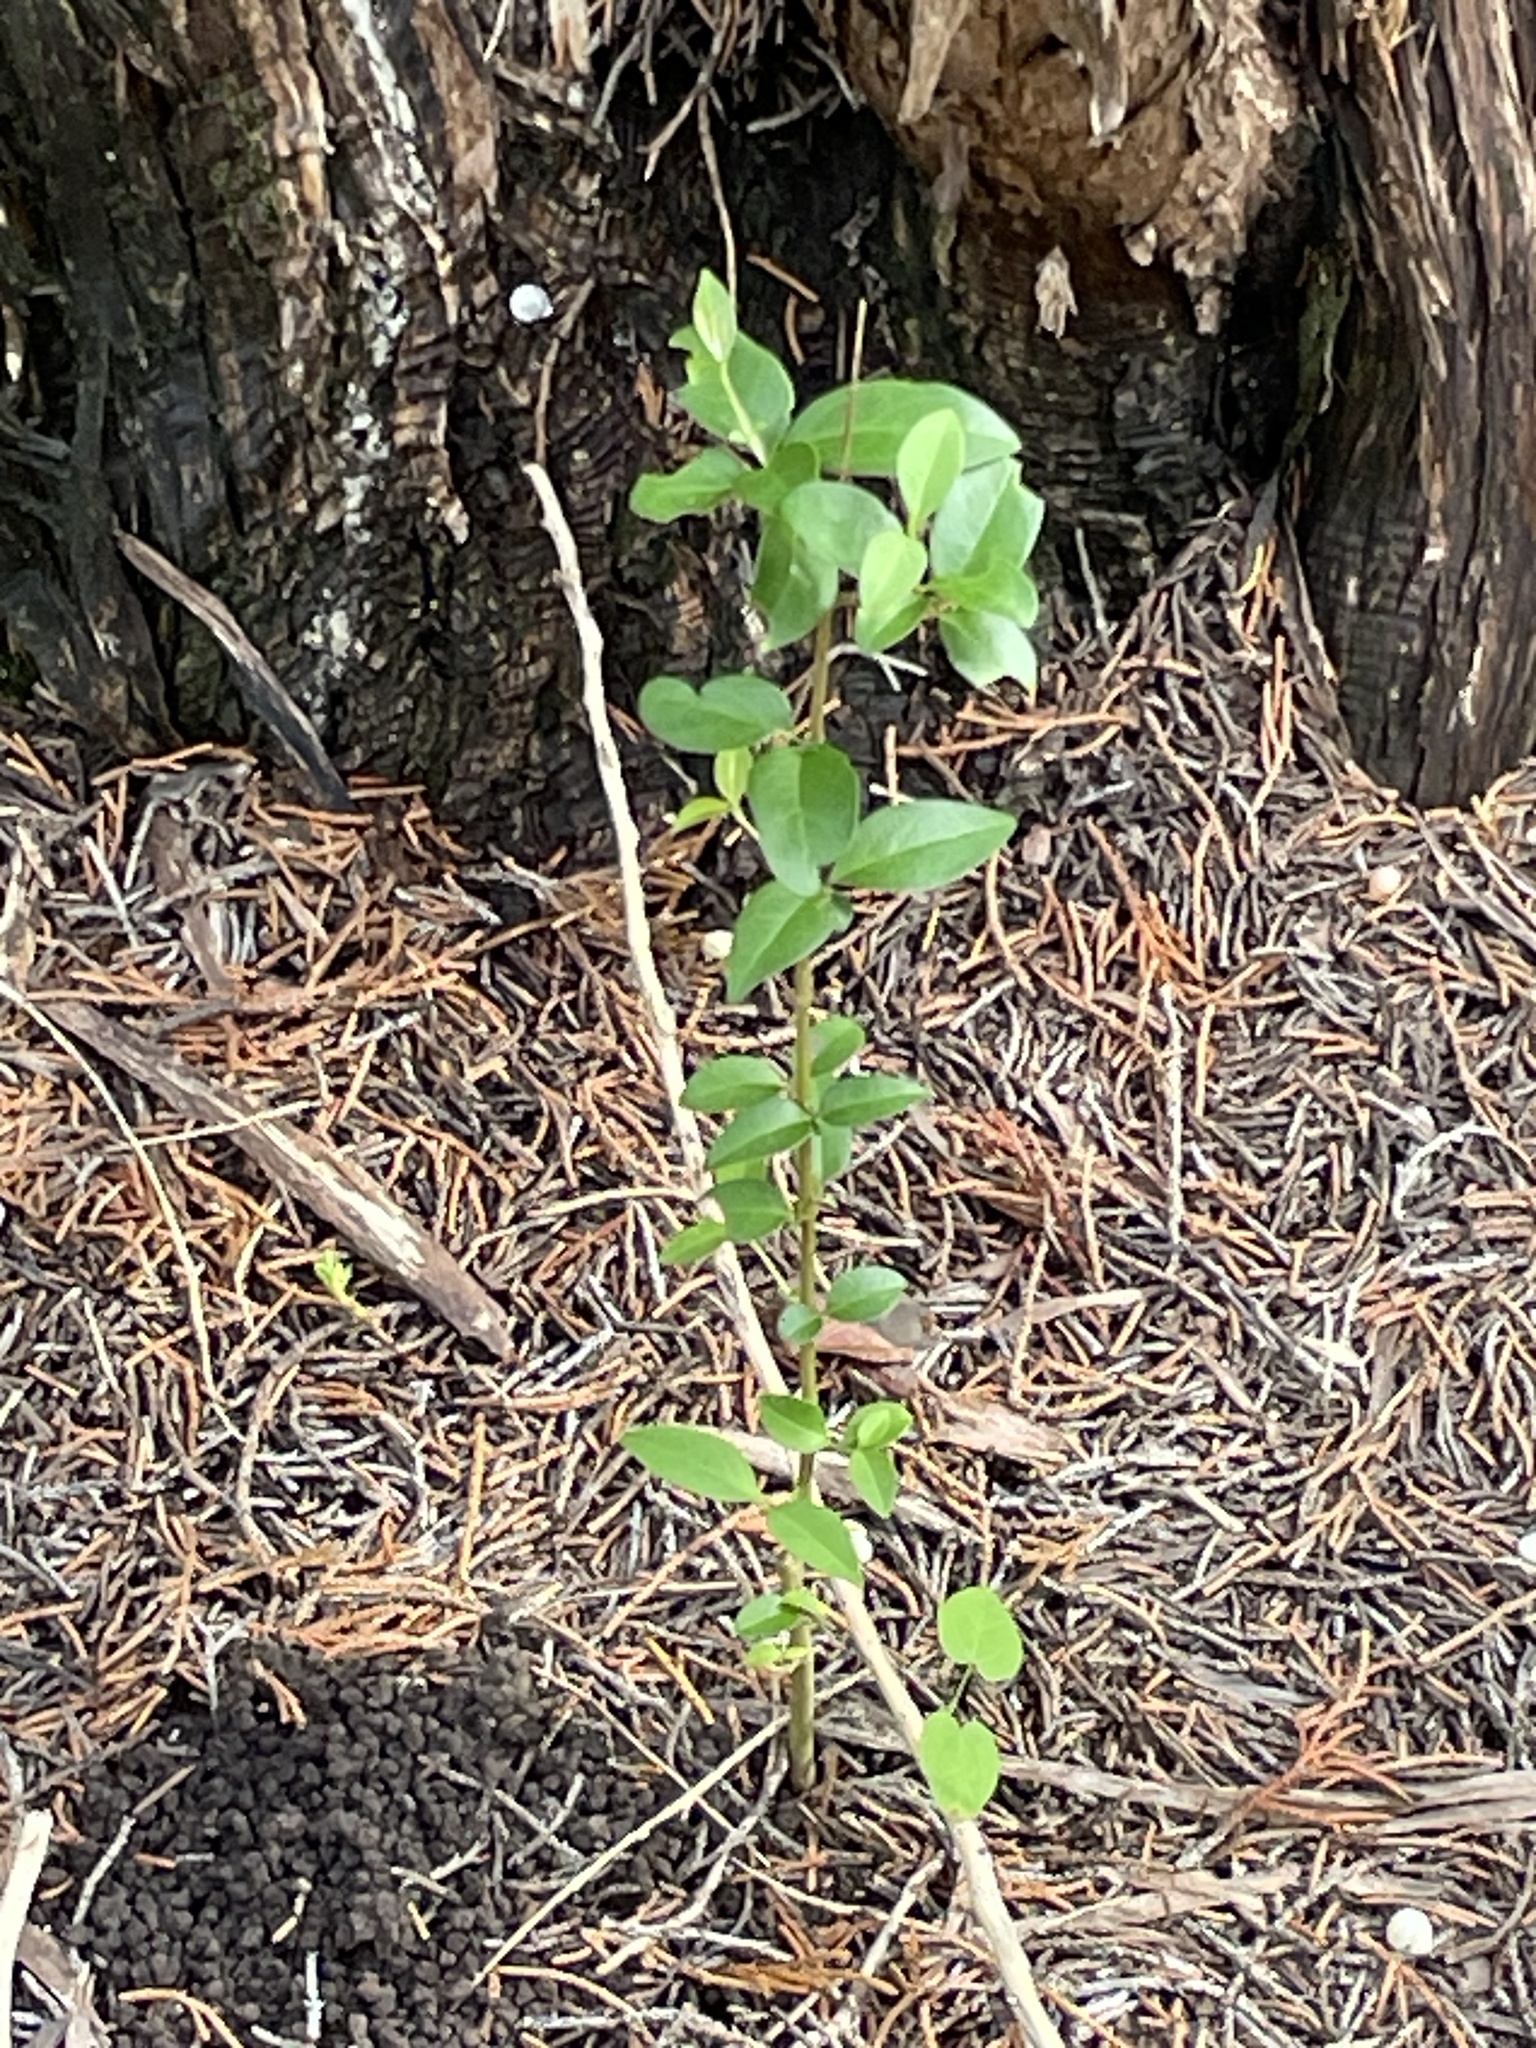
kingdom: Plantae
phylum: Tracheophyta
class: Magnoliopsida
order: Lamiales
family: Oleaceae
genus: Ligustrum
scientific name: Ligustrum lucidum
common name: Glossy privet
